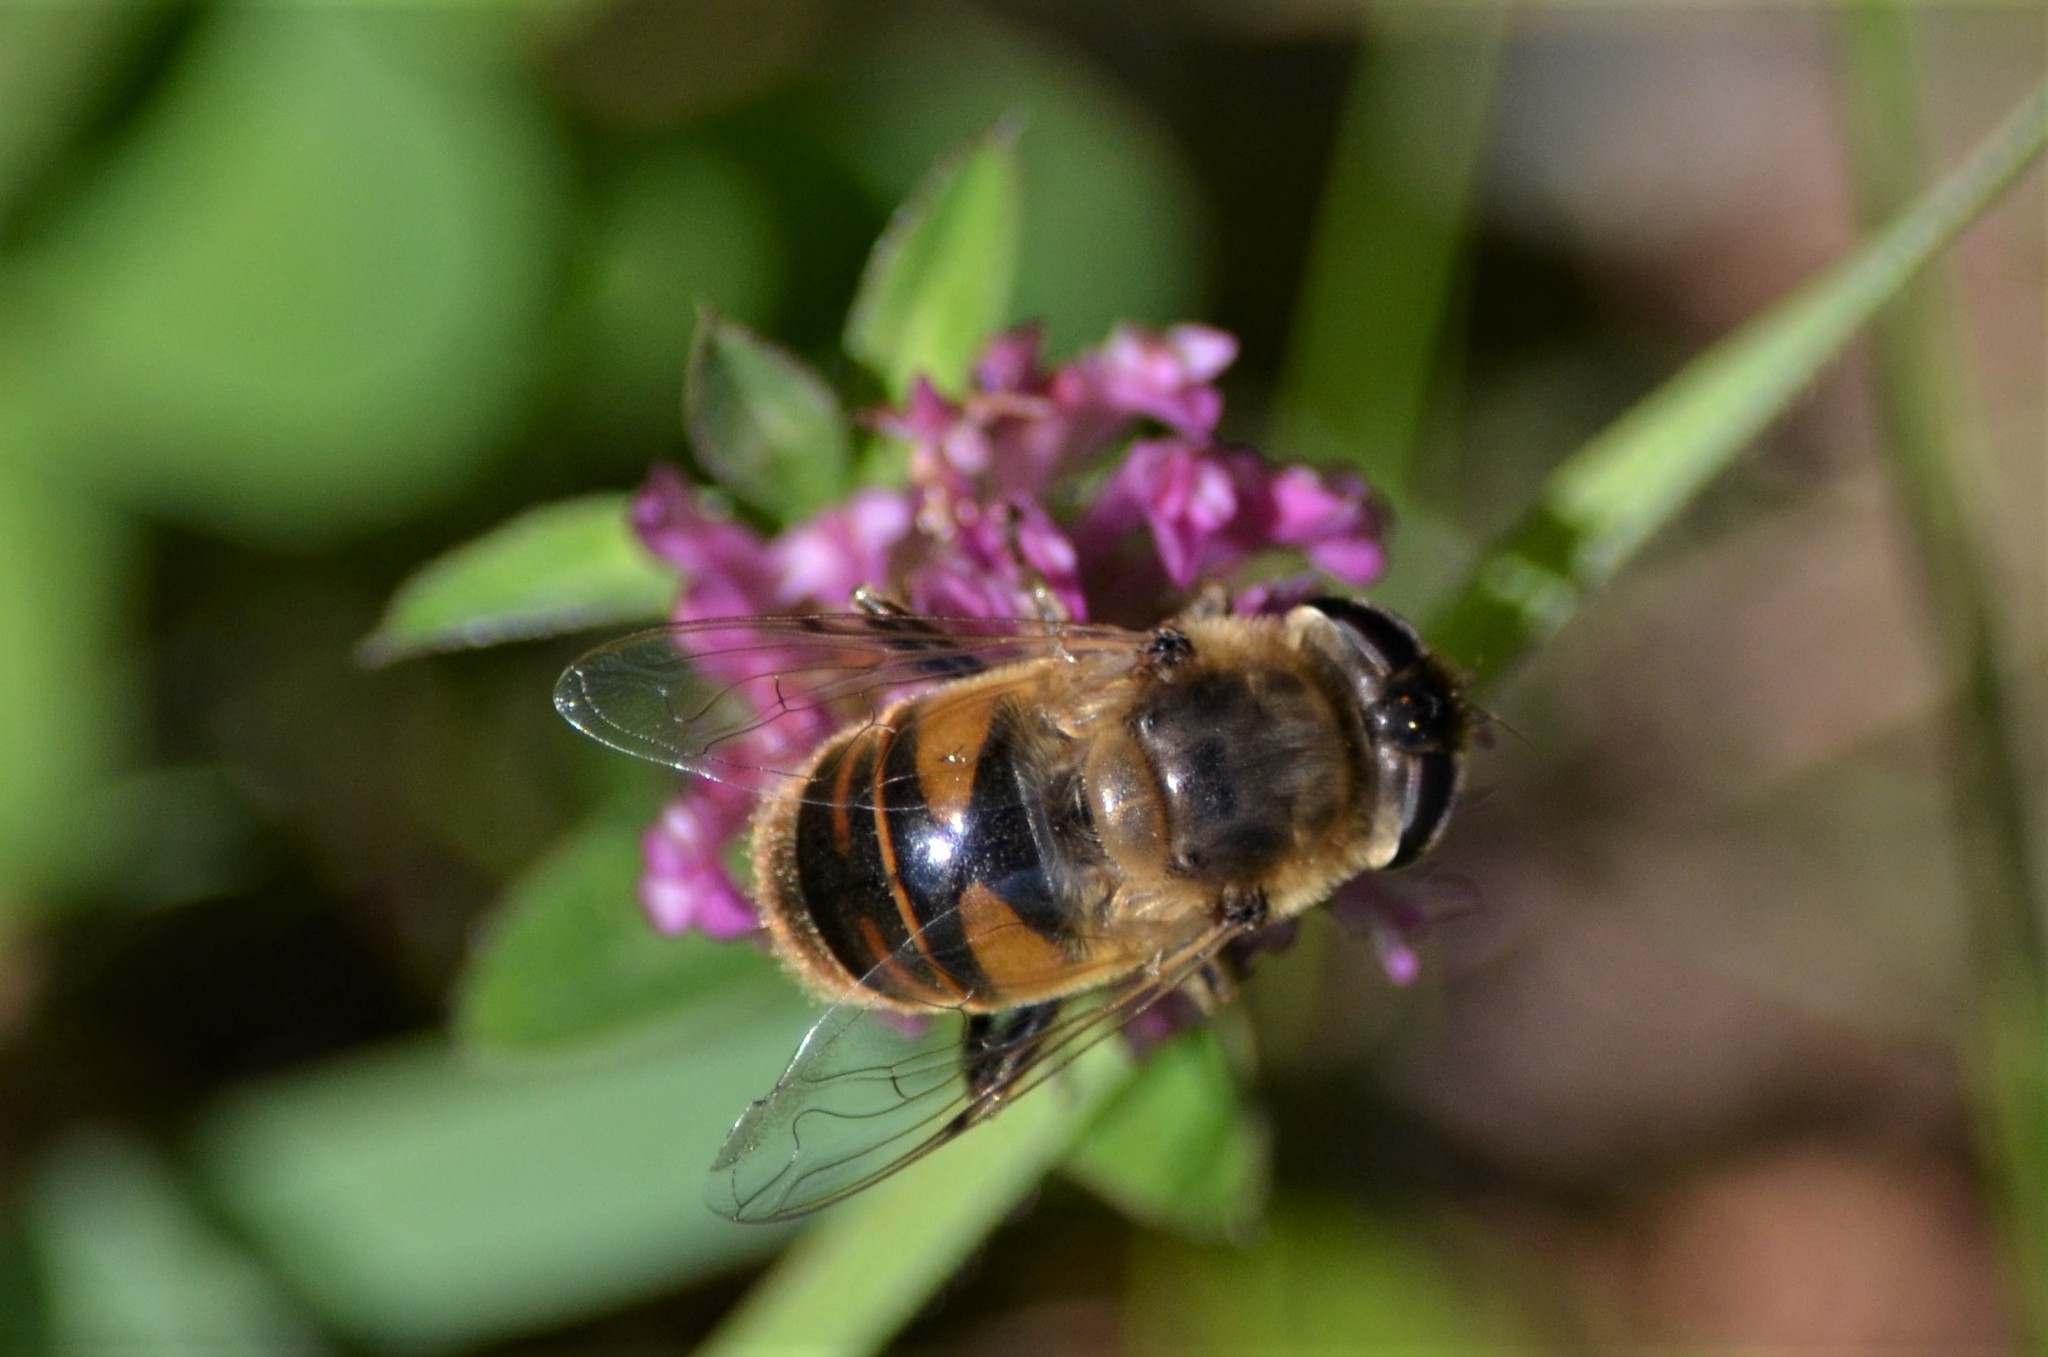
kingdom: Animalia
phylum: Arthropoda
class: Insecta
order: Diptera
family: Syrphidae
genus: Eristalis
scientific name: Eristalis tenax
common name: Drone fly
